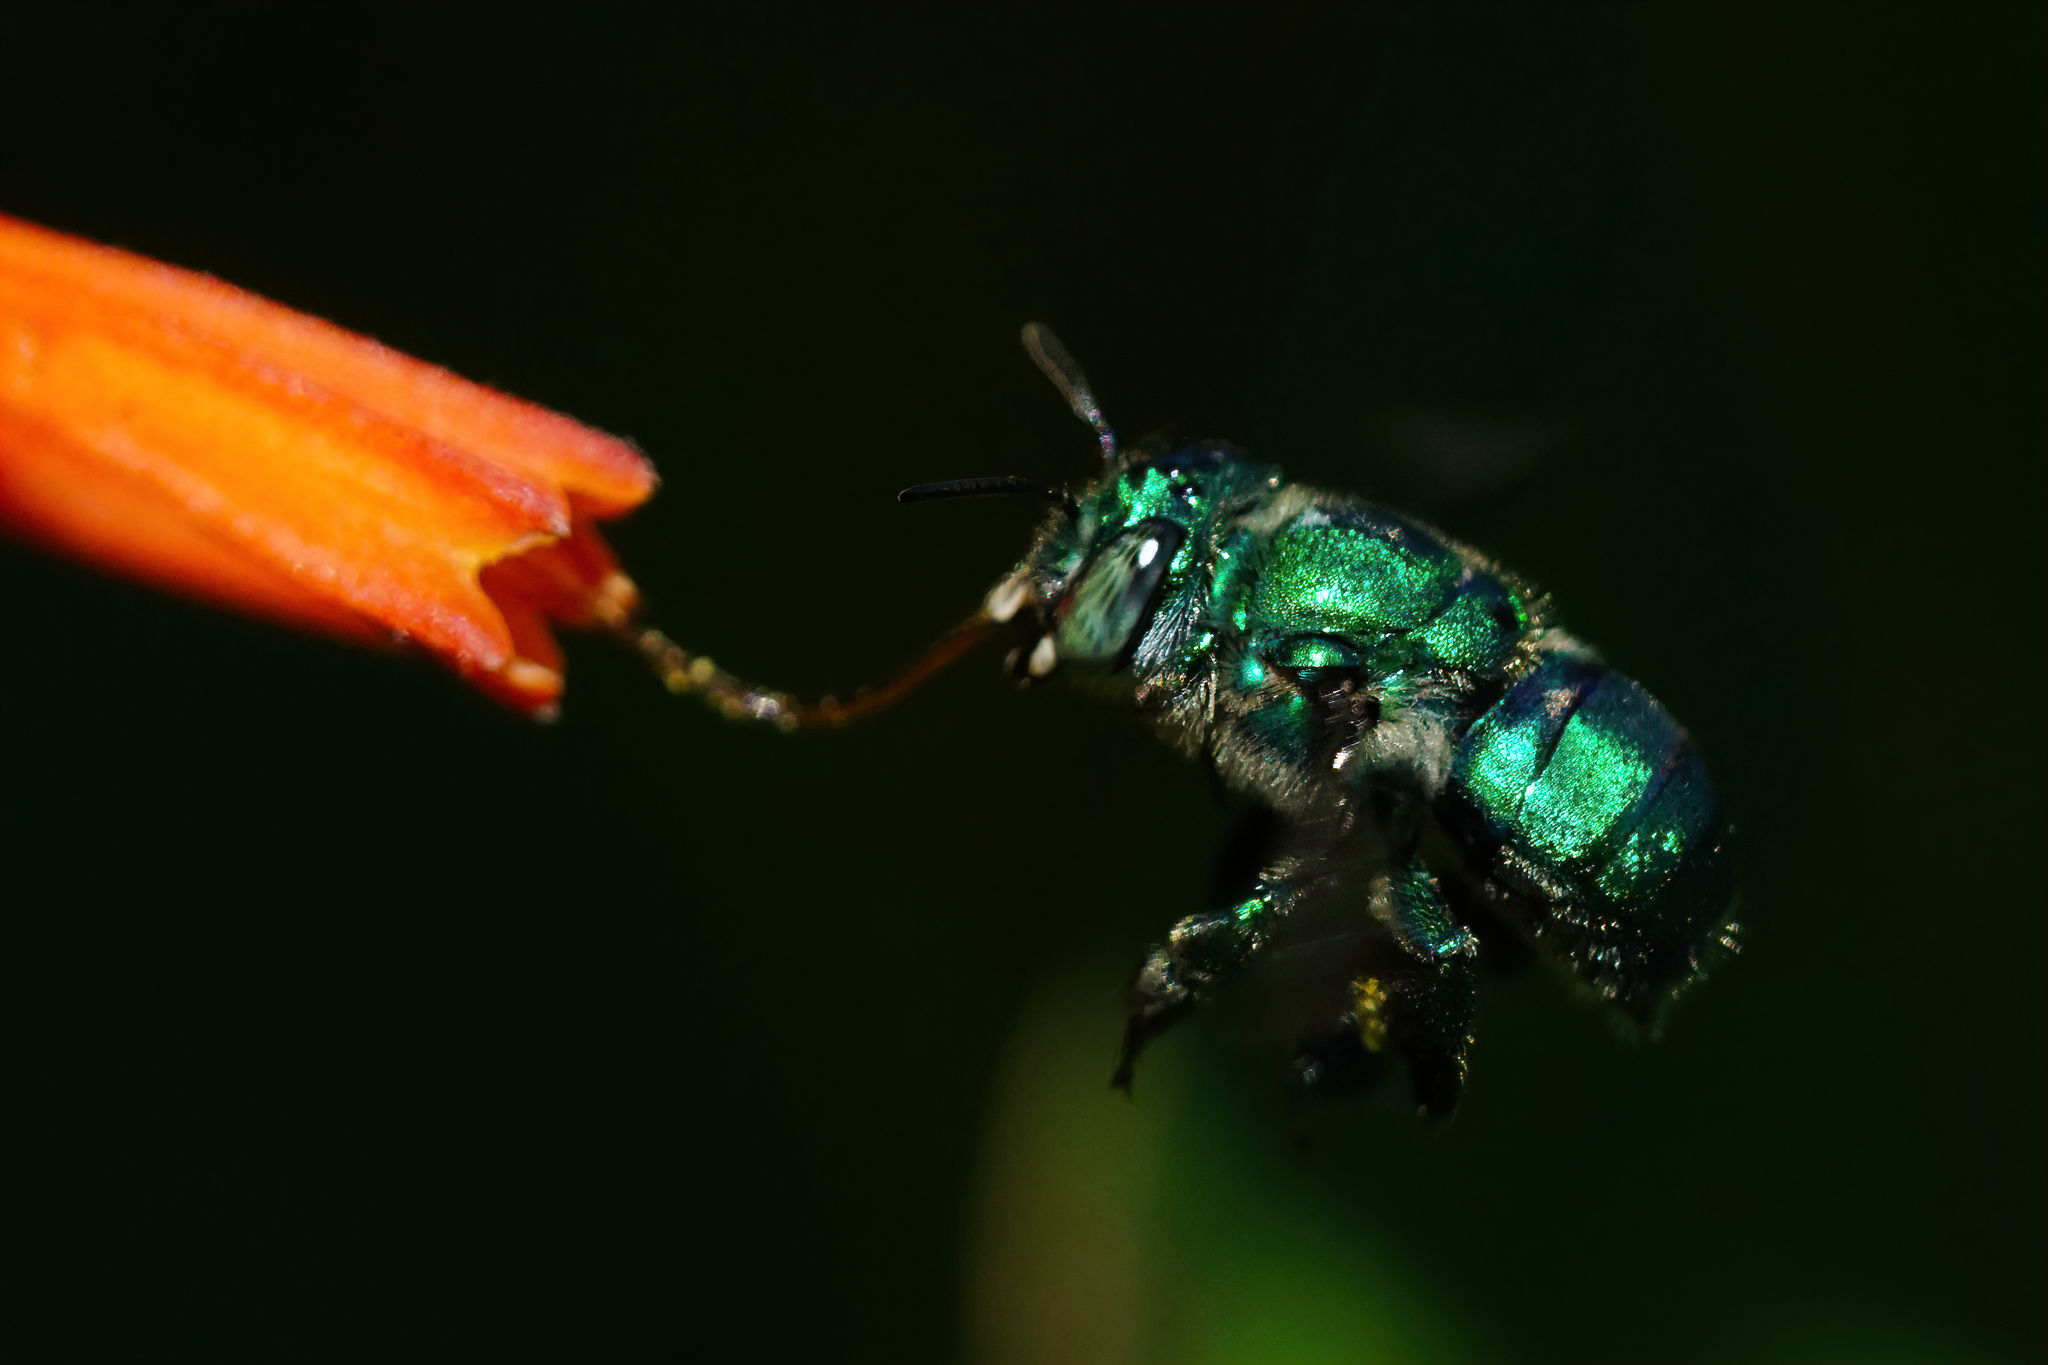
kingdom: Animalia
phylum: Arthropoda
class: Insecta
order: Hymenoptera
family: Apidae
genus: Euglossa
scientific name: Euglossa dilemma
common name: Green orchid bee
